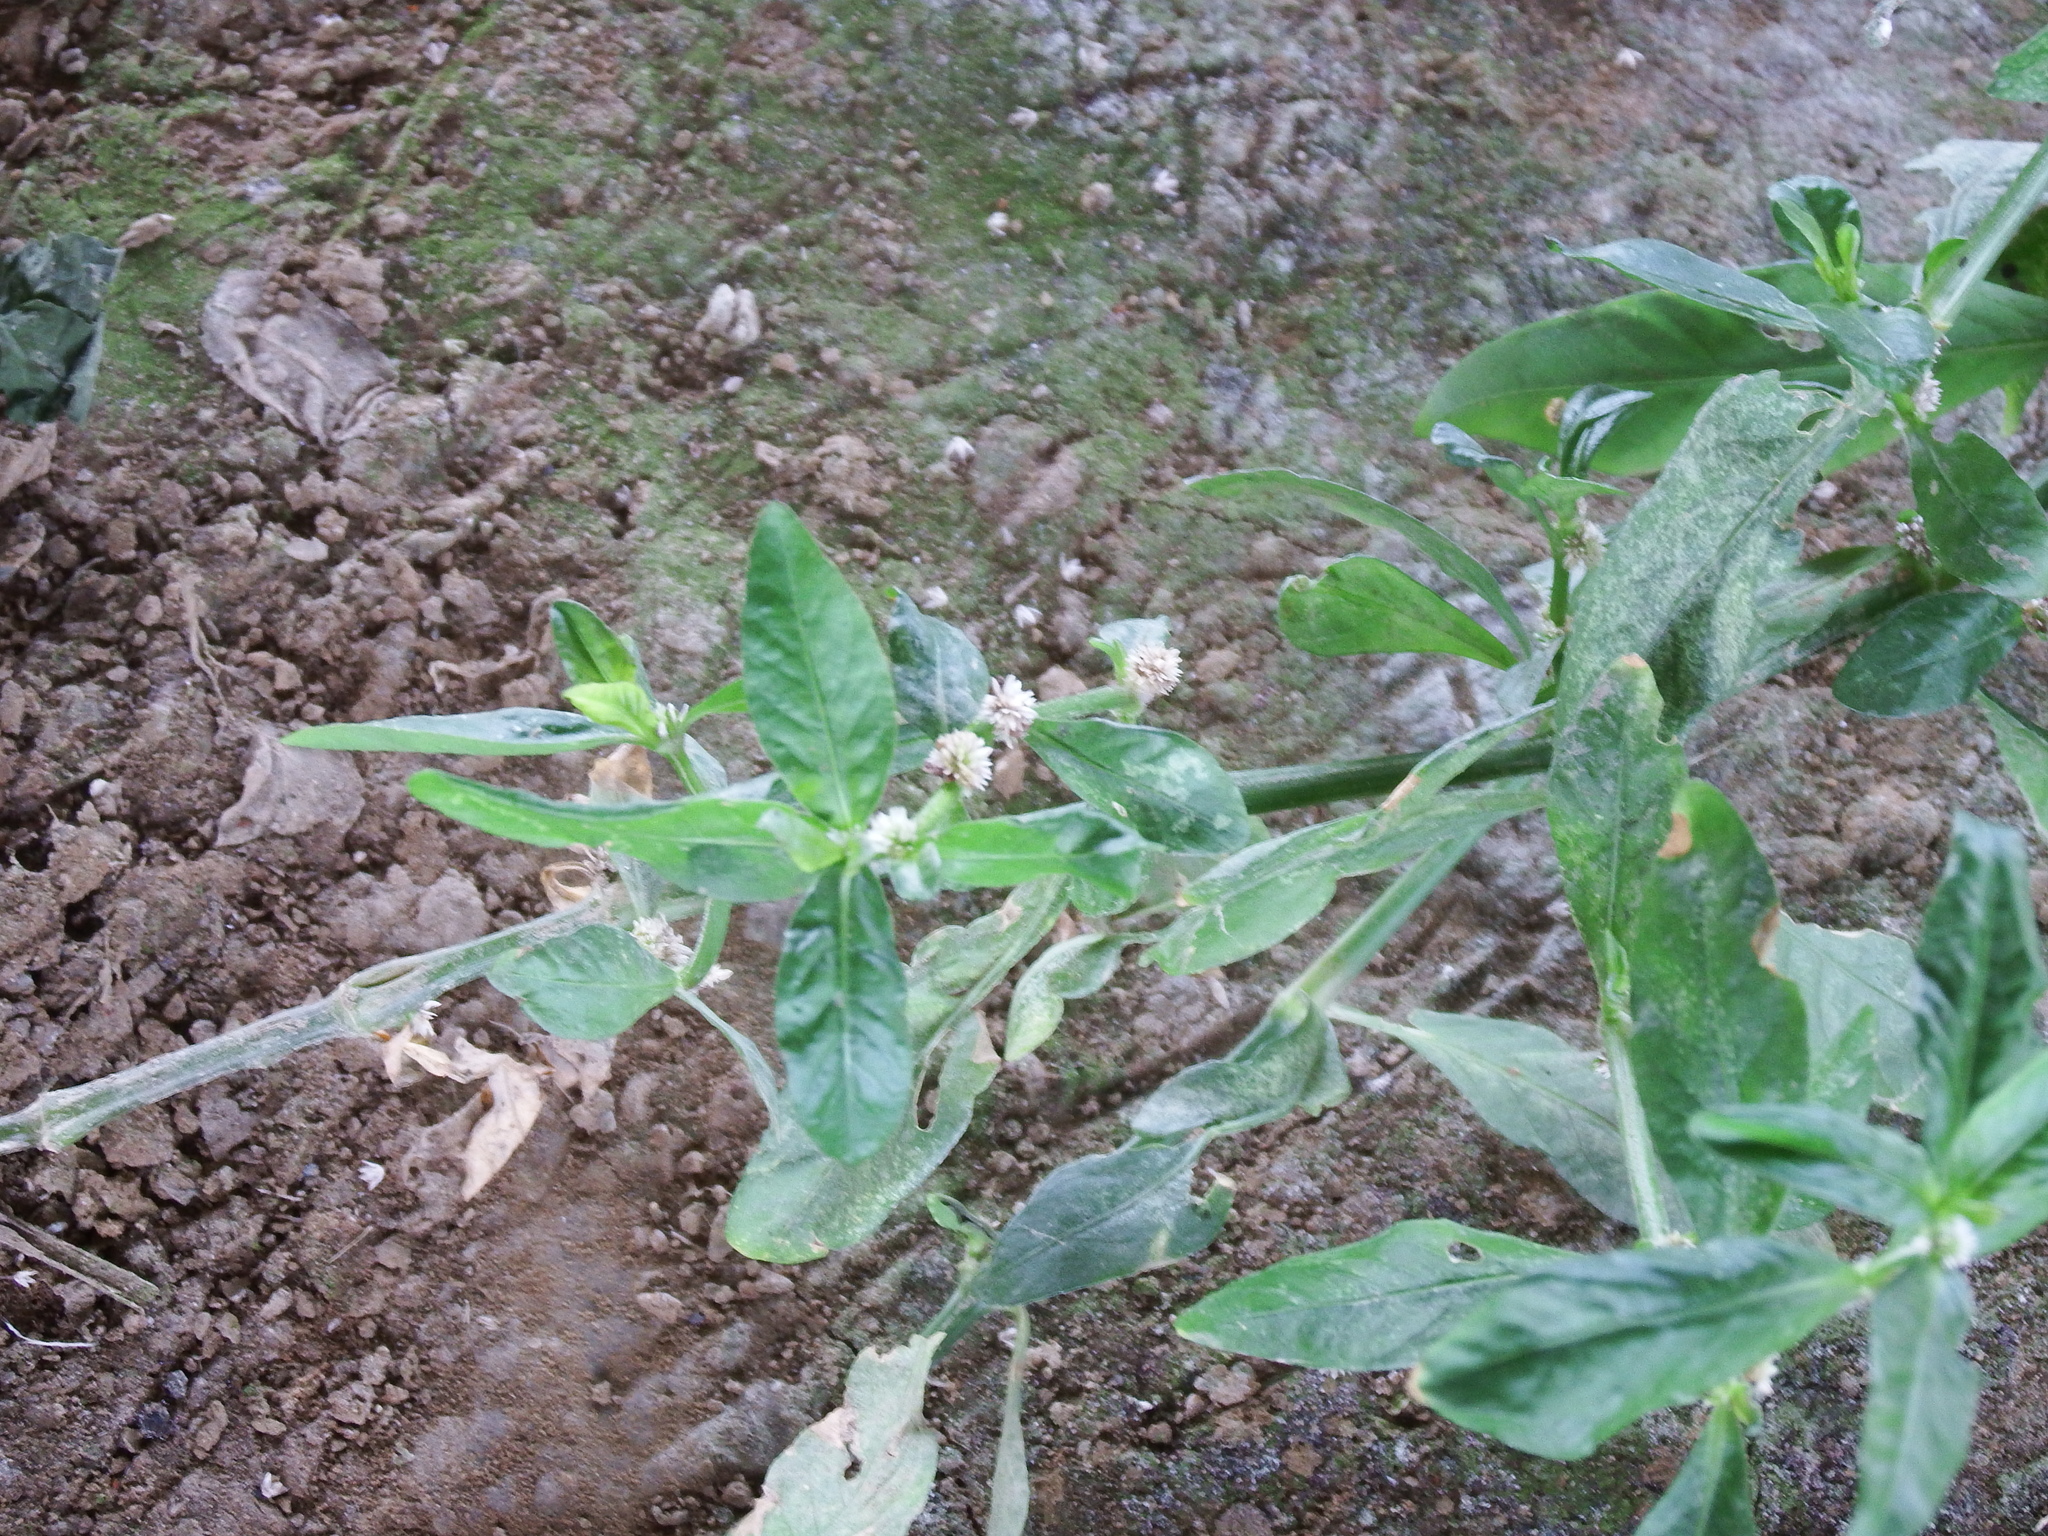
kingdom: Plantae
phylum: Tracheophyta
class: Magnoliopsida
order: Caryophyllales
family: Amaranthaceae
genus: Alternanthera
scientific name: Alternanthera bettzickiana
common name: Calico-plant
